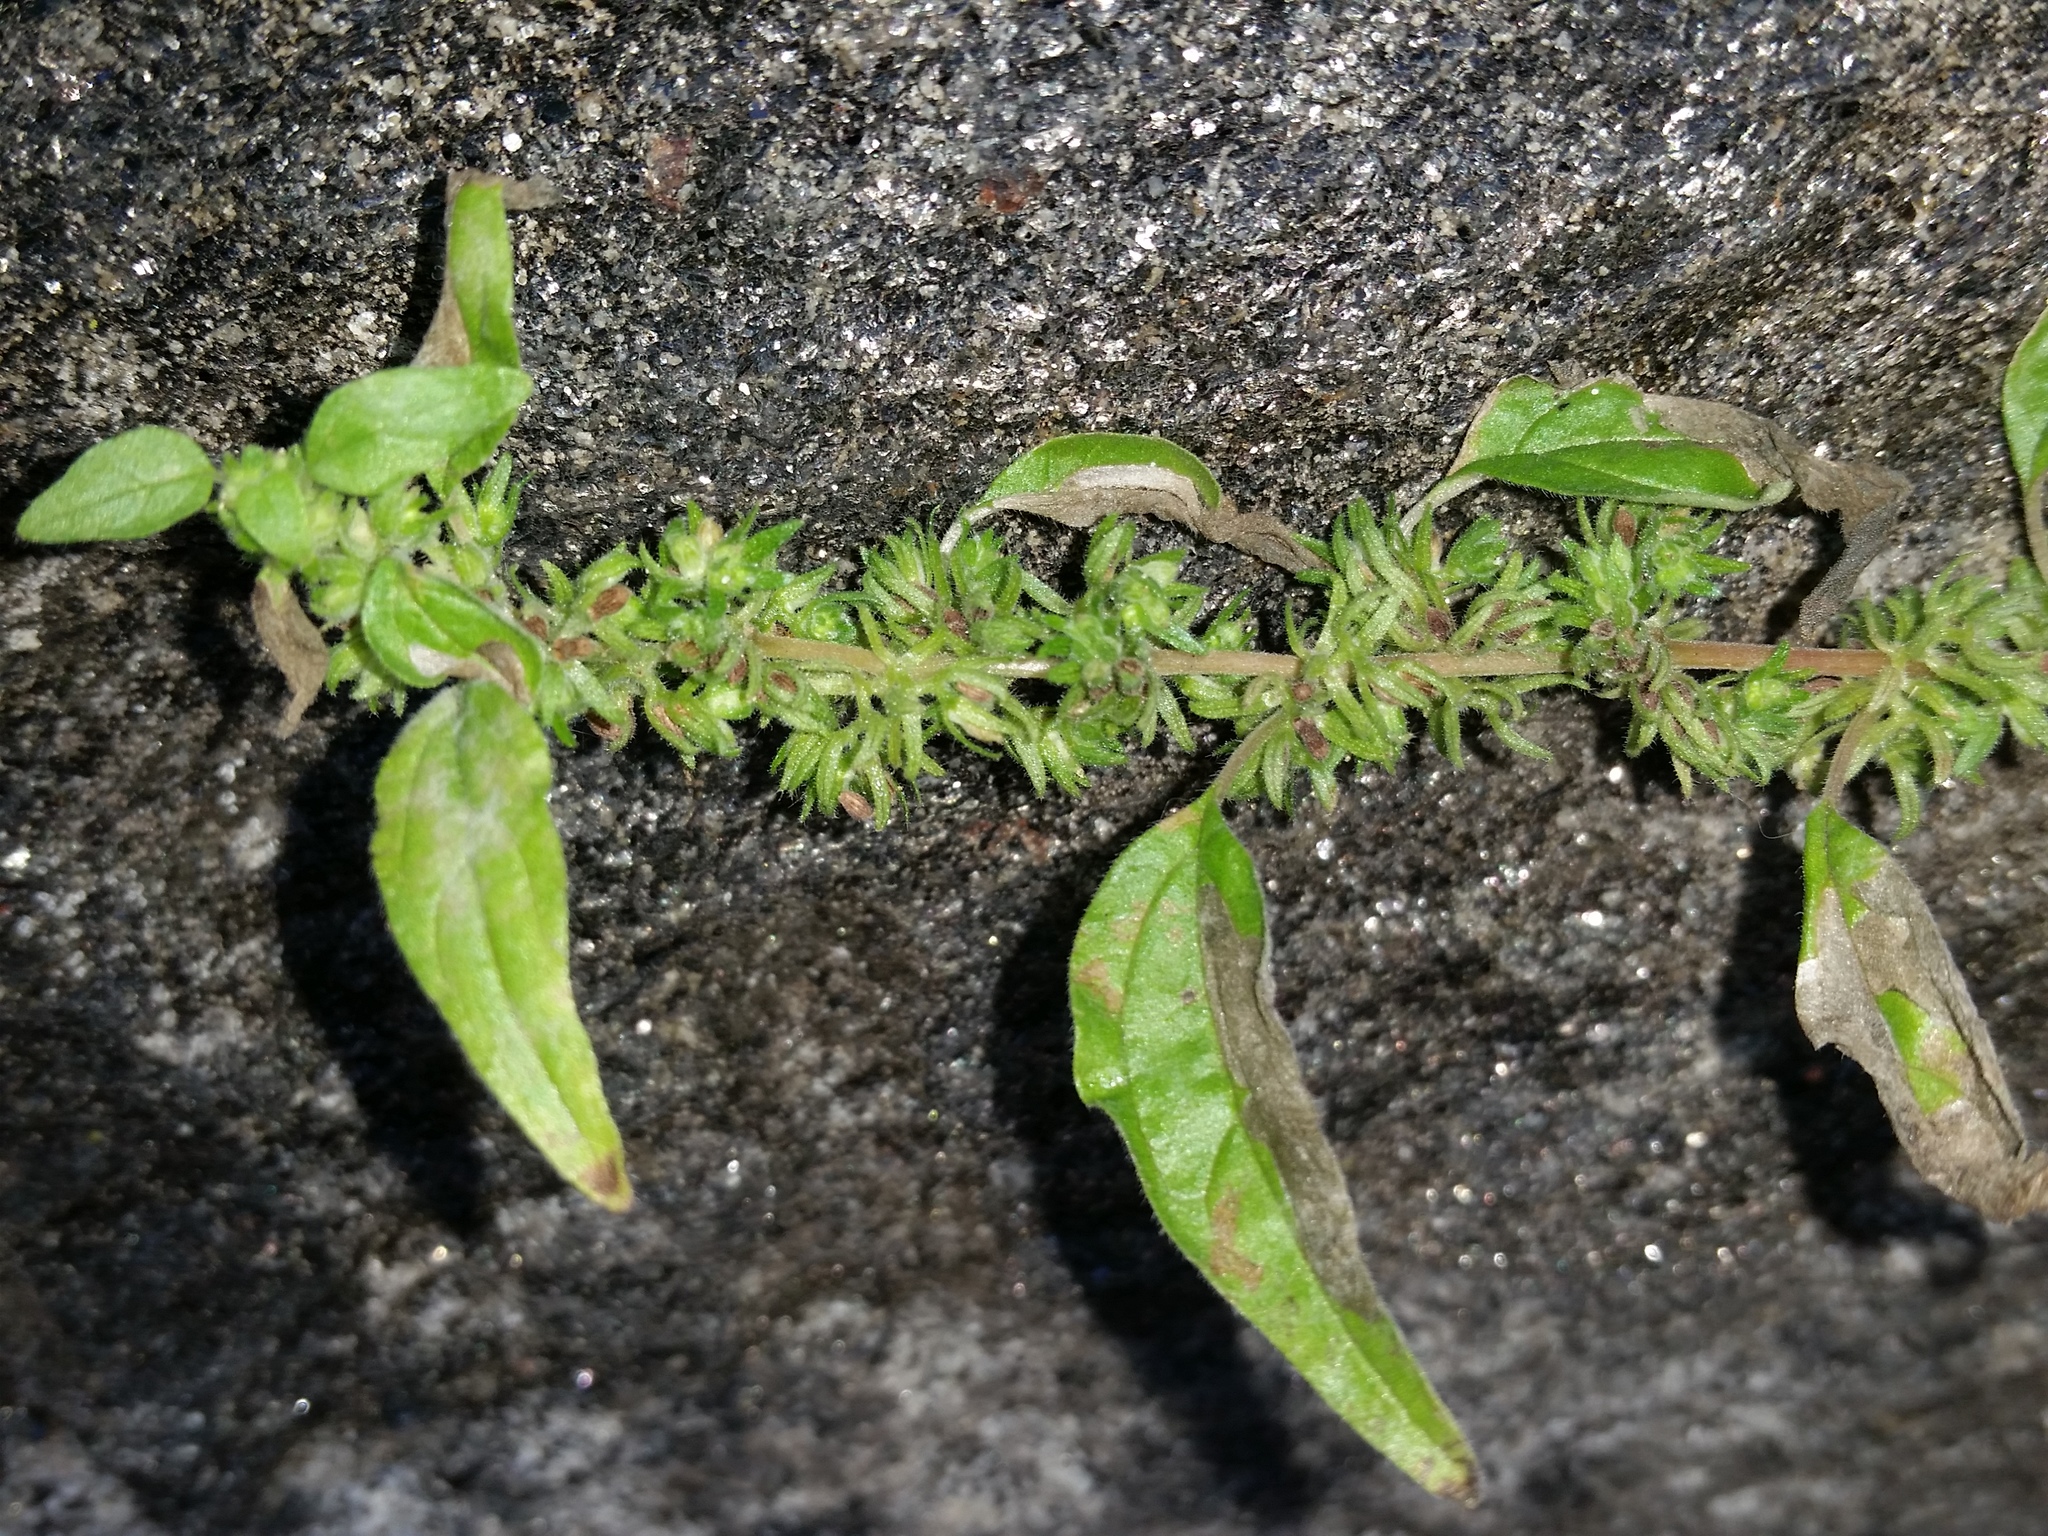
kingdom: Plantae
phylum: Tracheophyta
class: Magnoliopsida
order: Rosales
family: Urticaceae
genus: Parietaria
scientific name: Parietaria pensylvanica
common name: Pennsylvania pellitory
